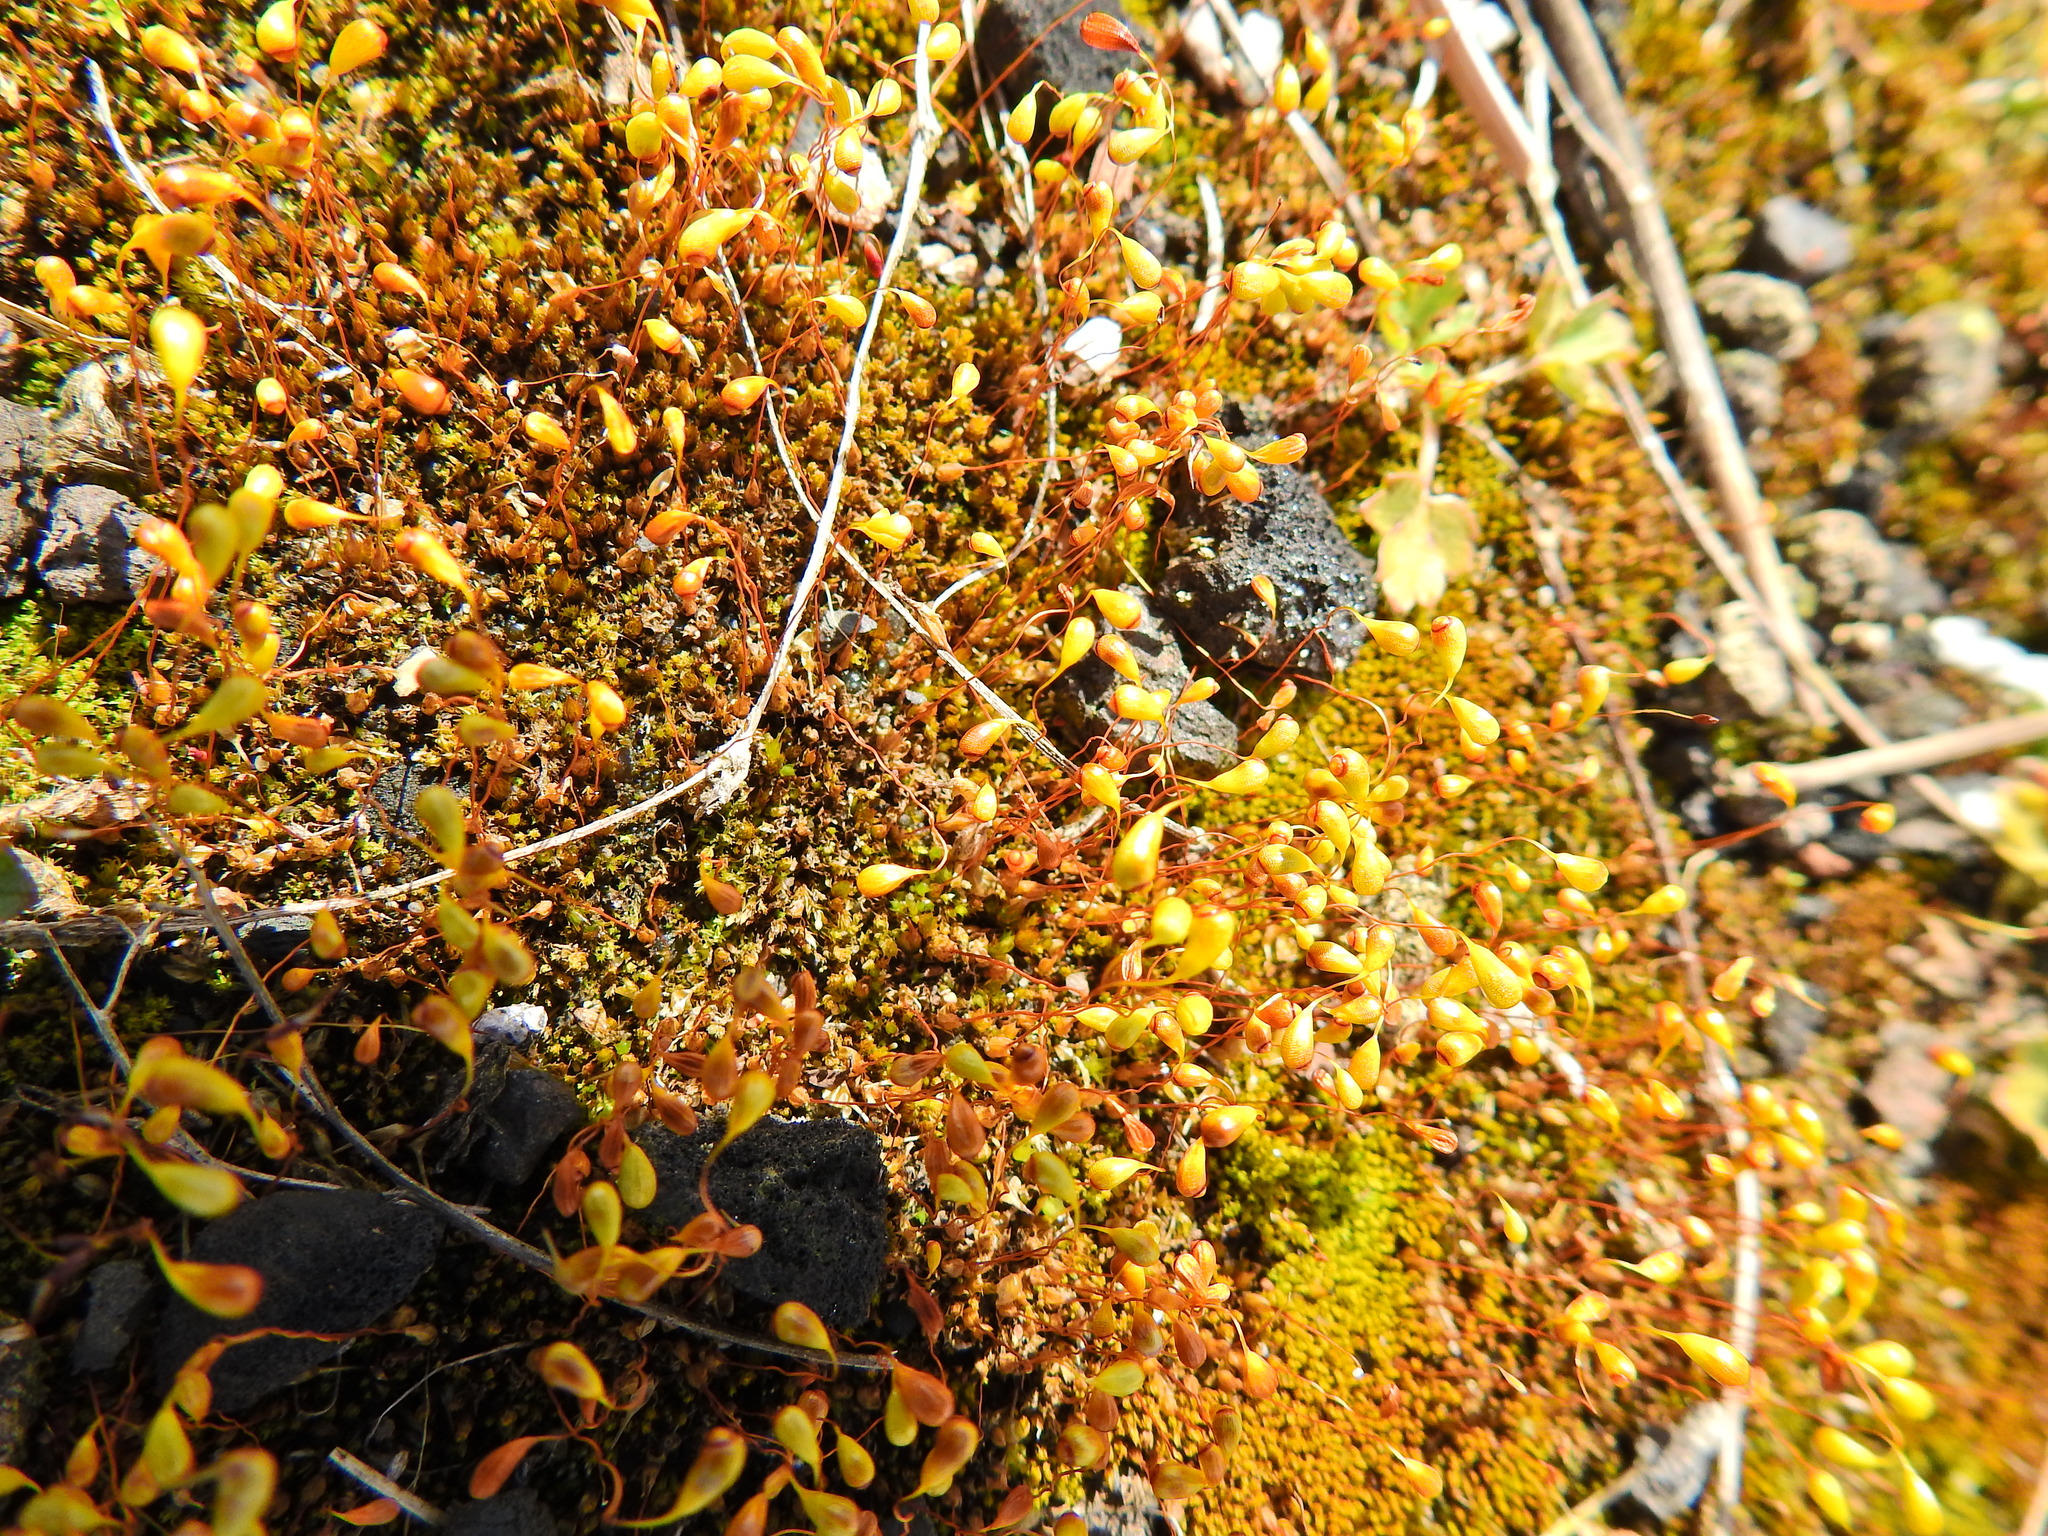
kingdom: Plantae
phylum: Bryophyta
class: Bryopsida
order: Funariales
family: Funariaceae
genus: Funaria
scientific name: Funaria hygrometrica
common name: Common cord moss
